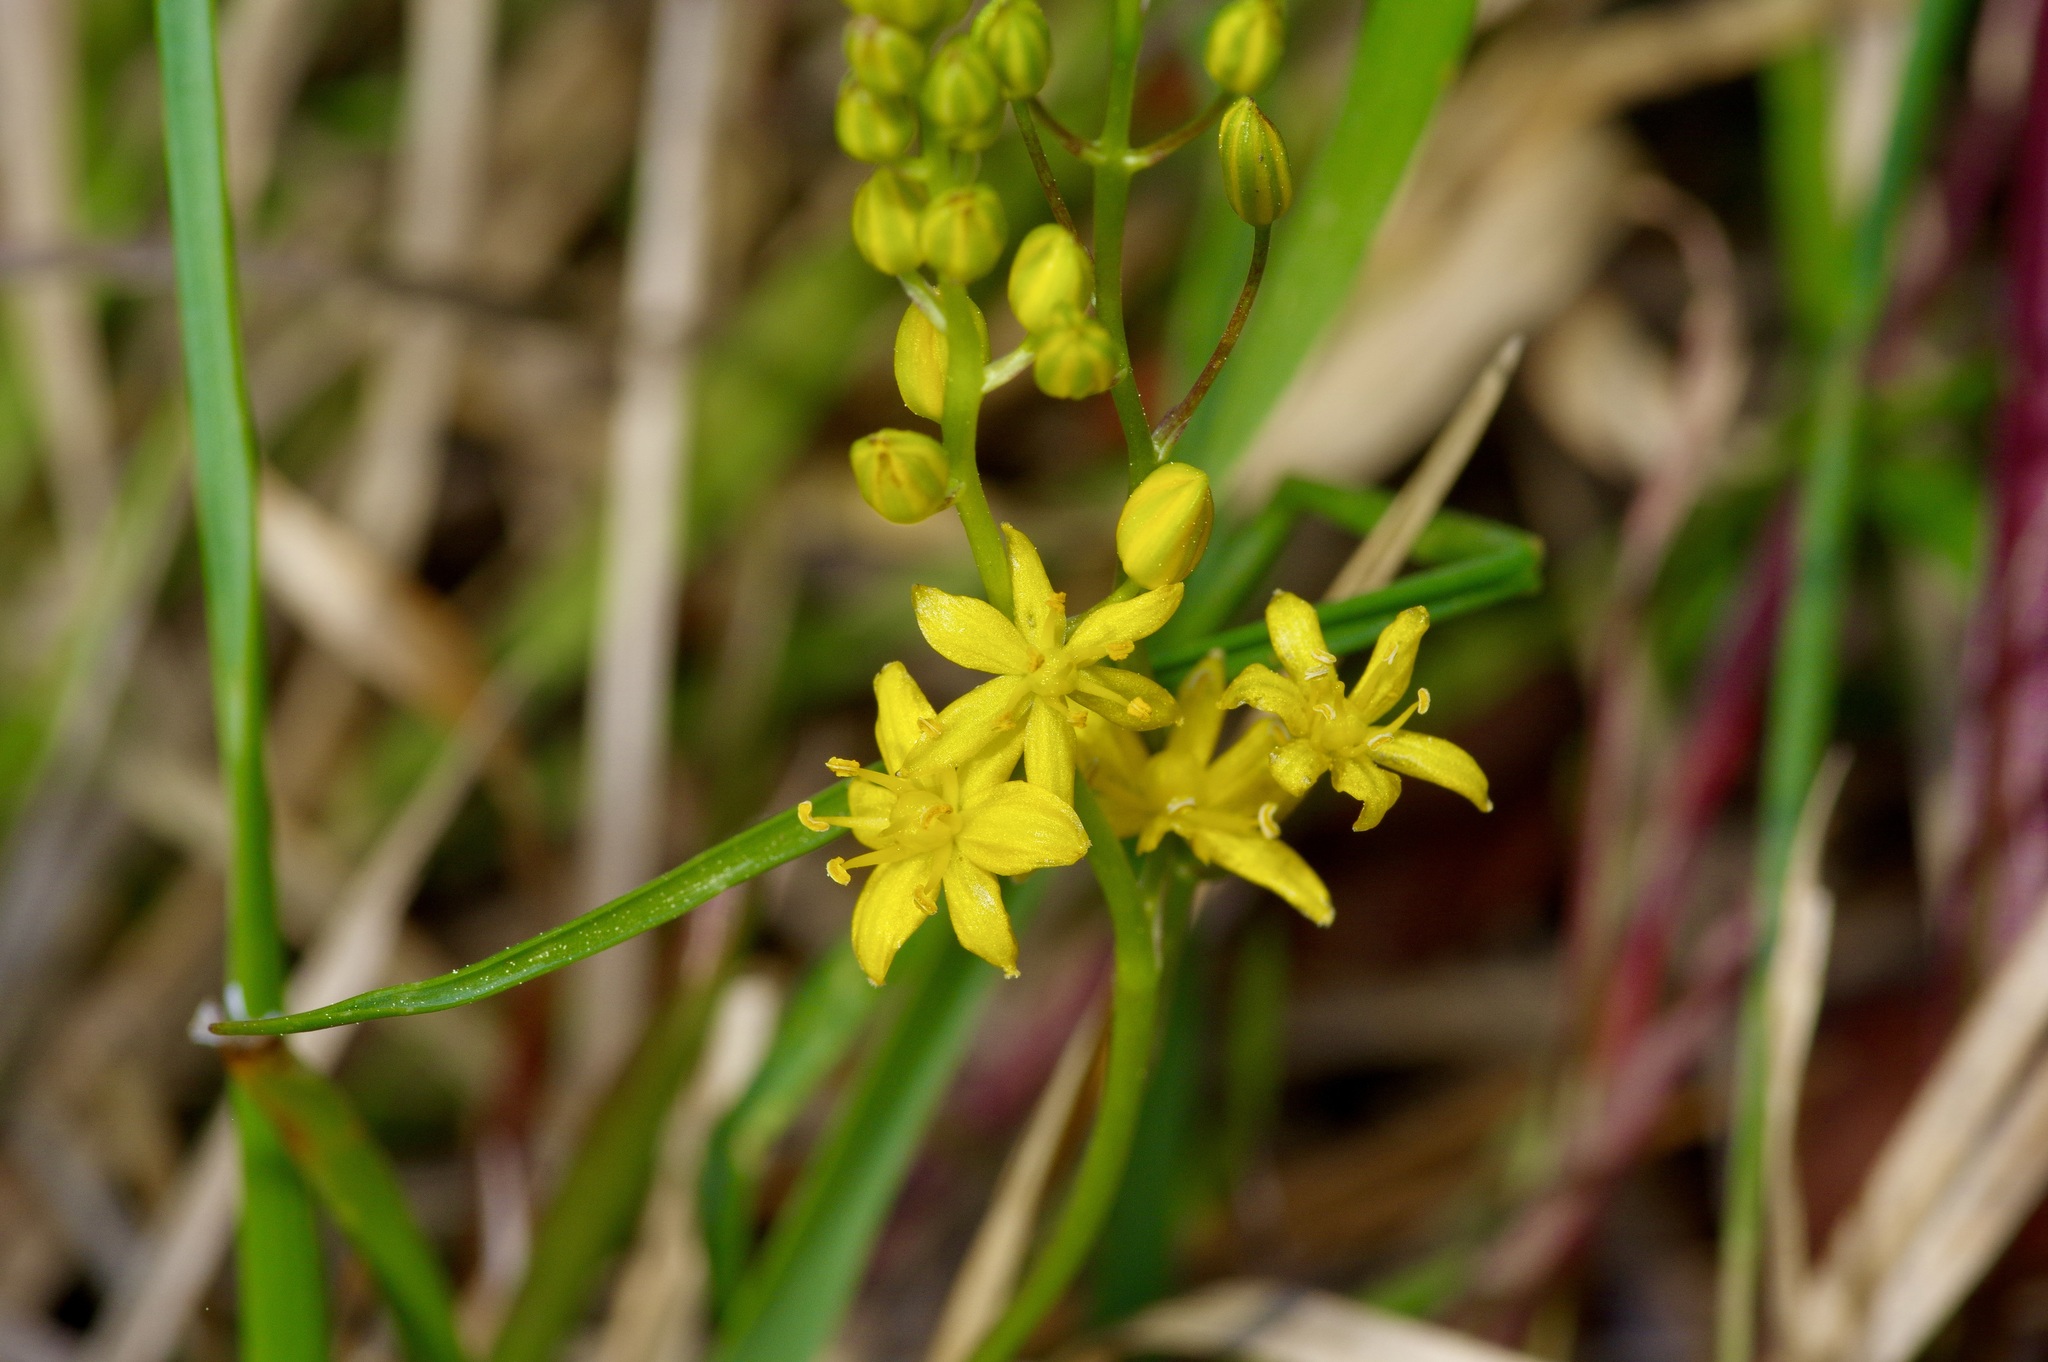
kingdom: Plantae
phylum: Tracheophyta
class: Liliopsida
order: Asparagales
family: Asparagaceae
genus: Schoenolirion
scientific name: Schoenolirion croceum
